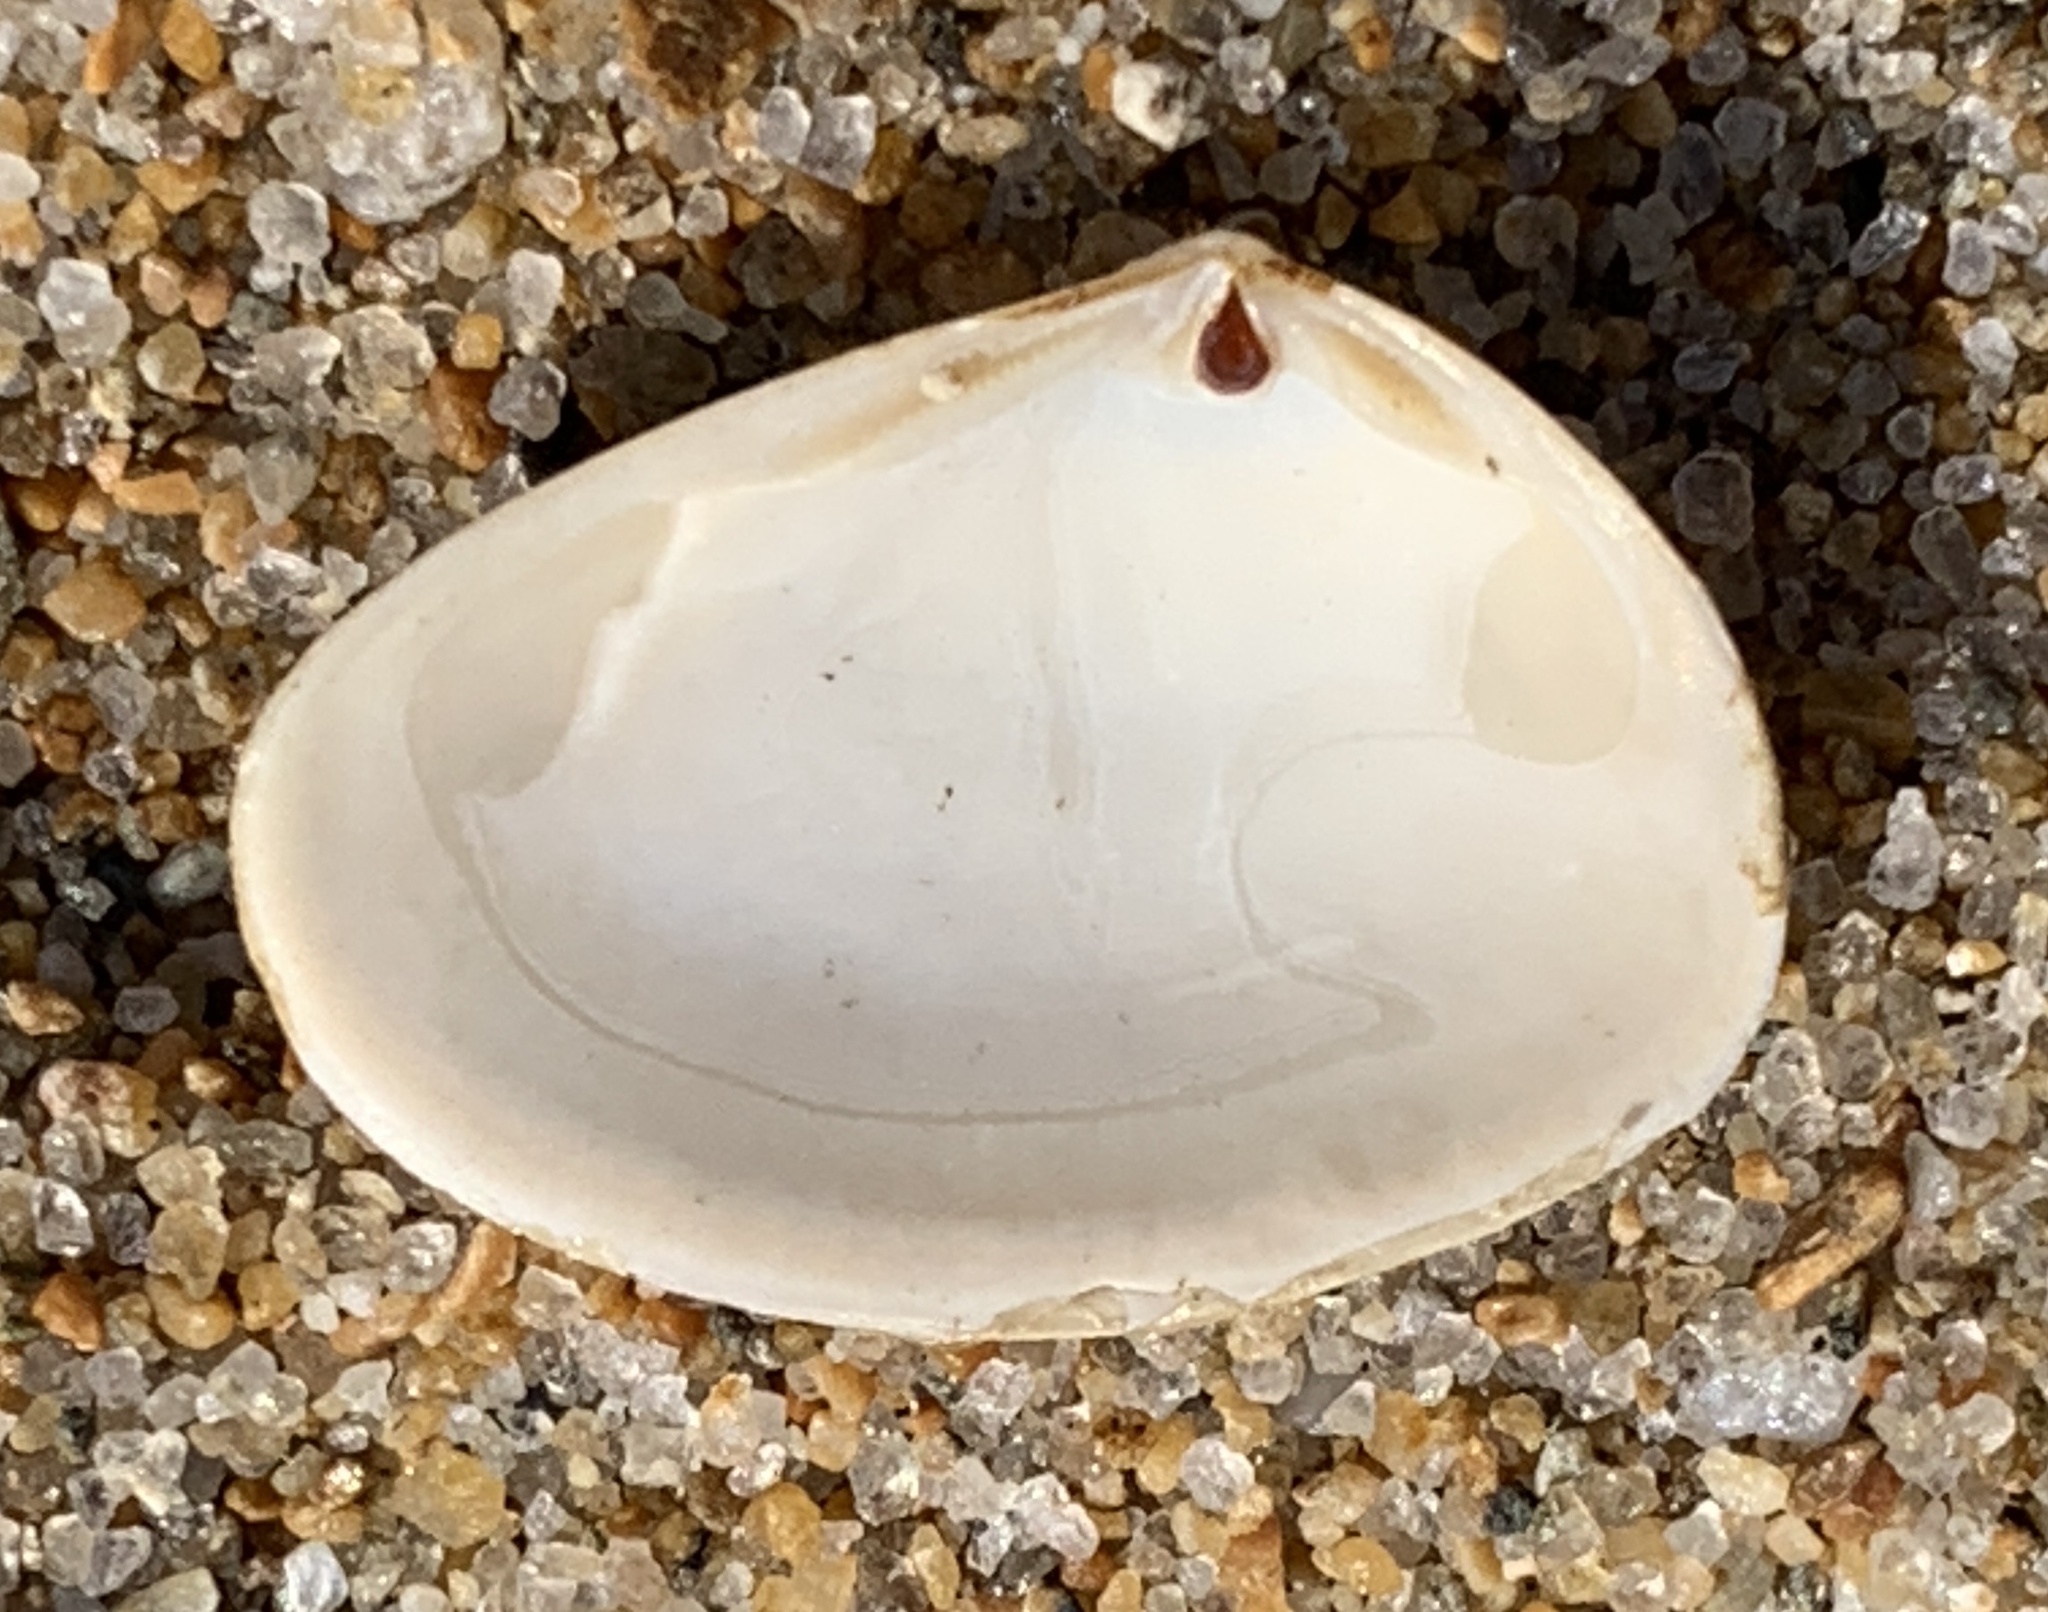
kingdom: Animalia
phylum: Mollusca
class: Bivalvia
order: Venerida
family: Mesodesmatidae
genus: Mesodesma
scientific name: Mesodesma arctatum
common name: Compressed clam
